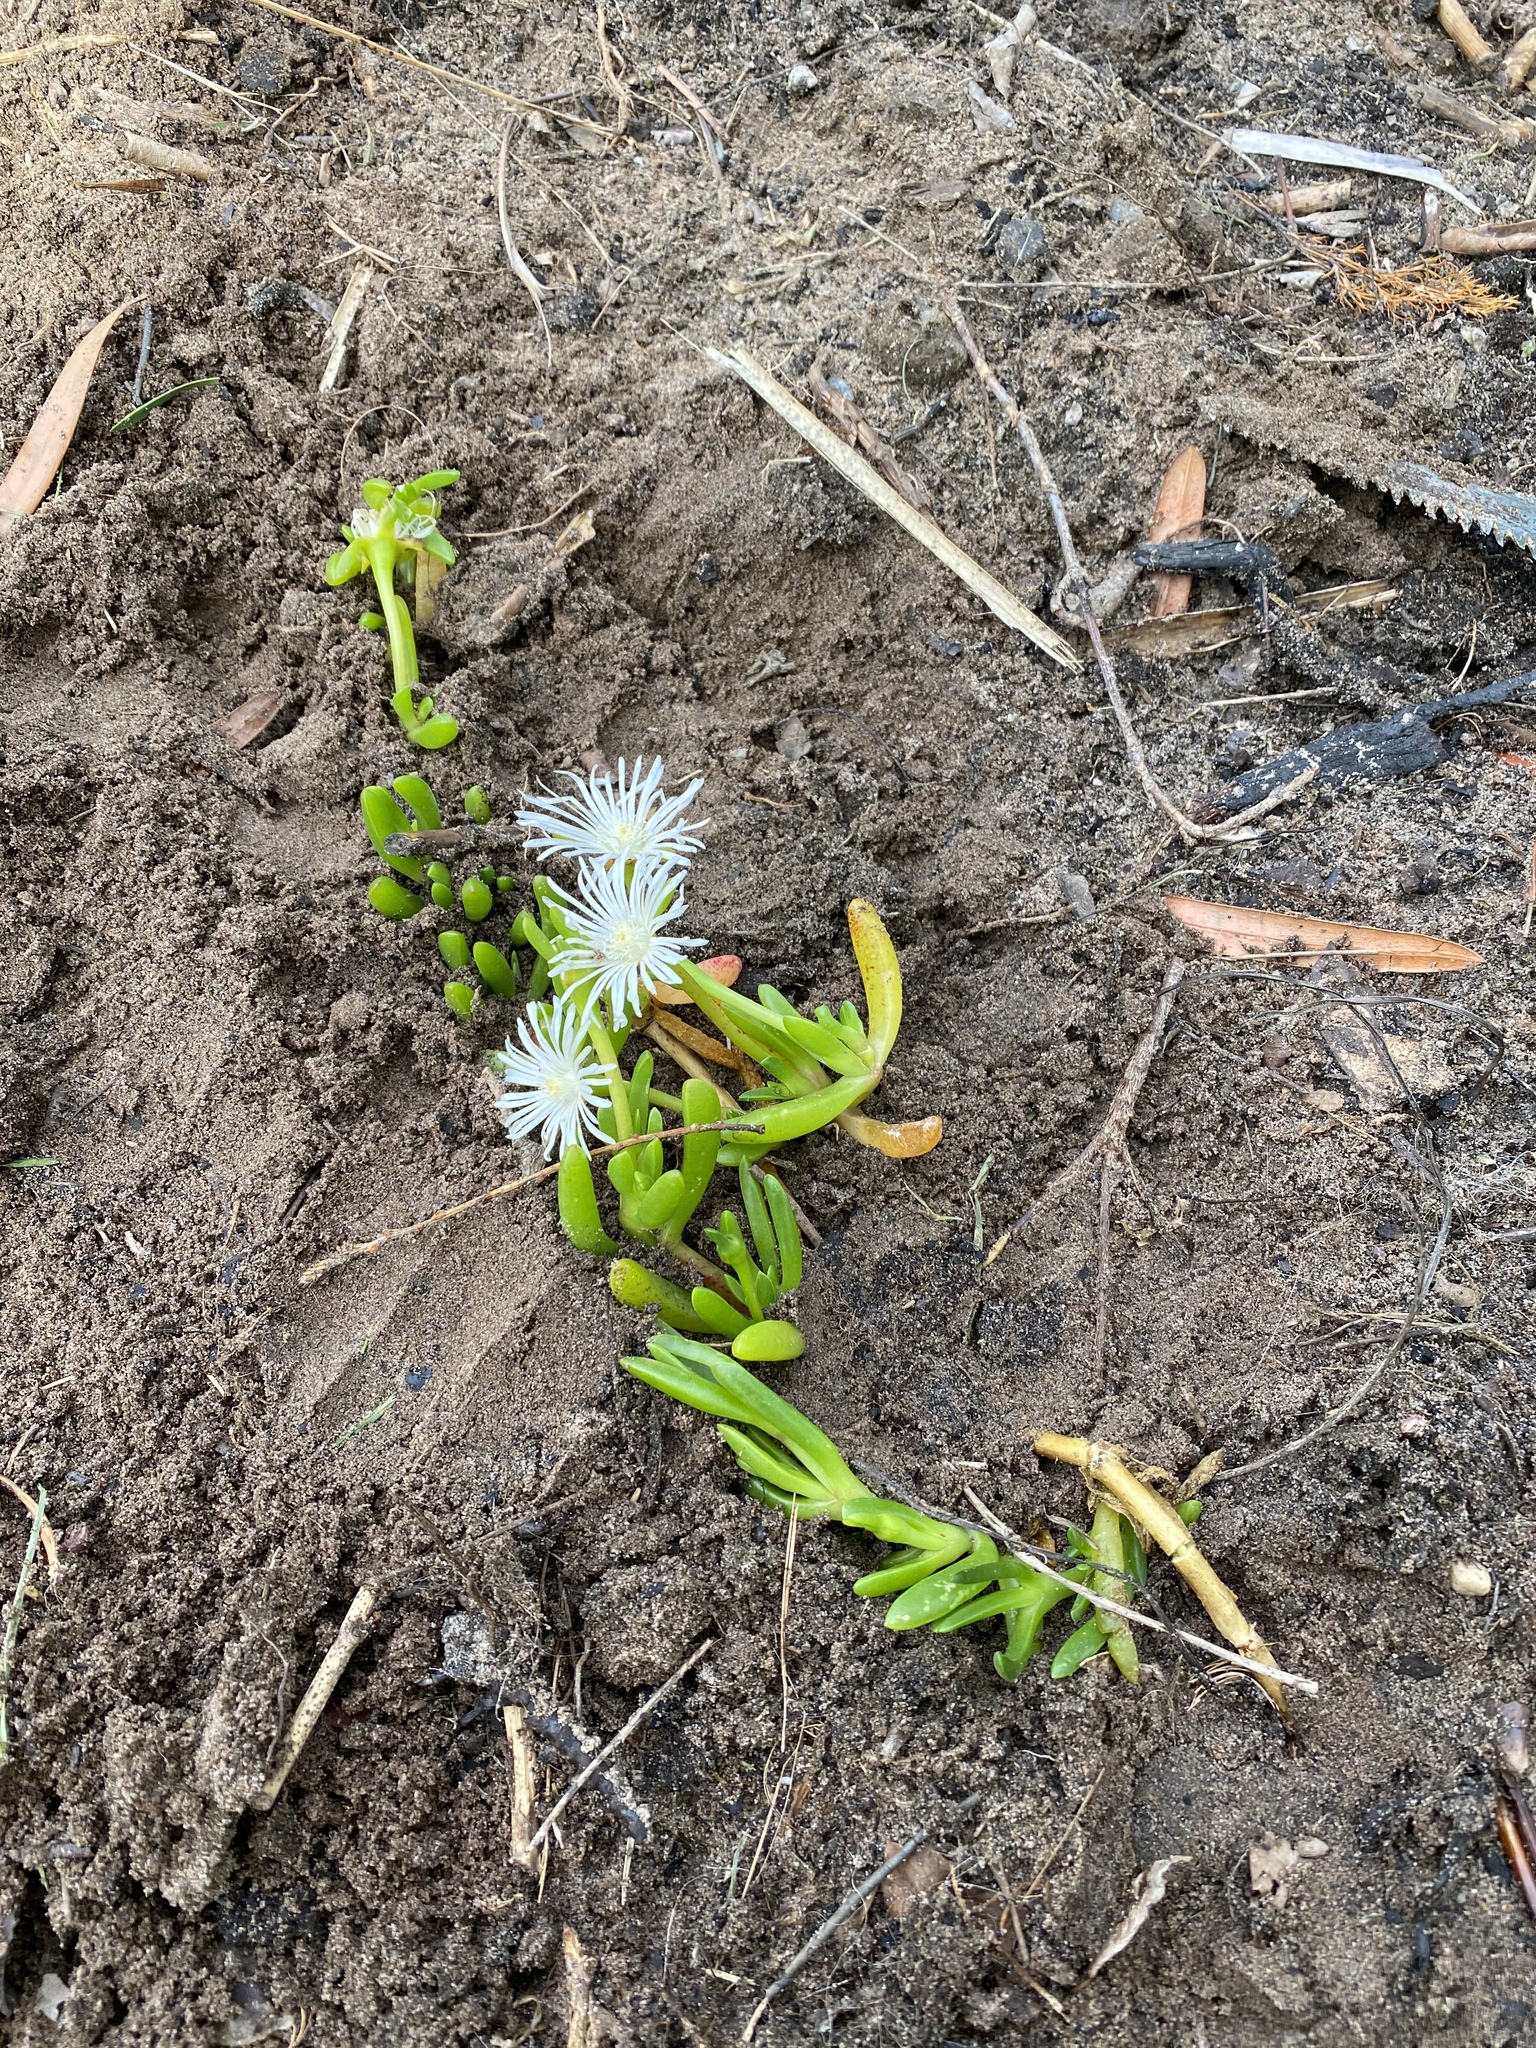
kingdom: Plantae
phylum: Tracheophyta
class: Magnoliopsida
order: Caryophyllales
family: Aizoaceae
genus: Disphyma
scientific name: Disphyma crassifolium
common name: Purple dewplant
